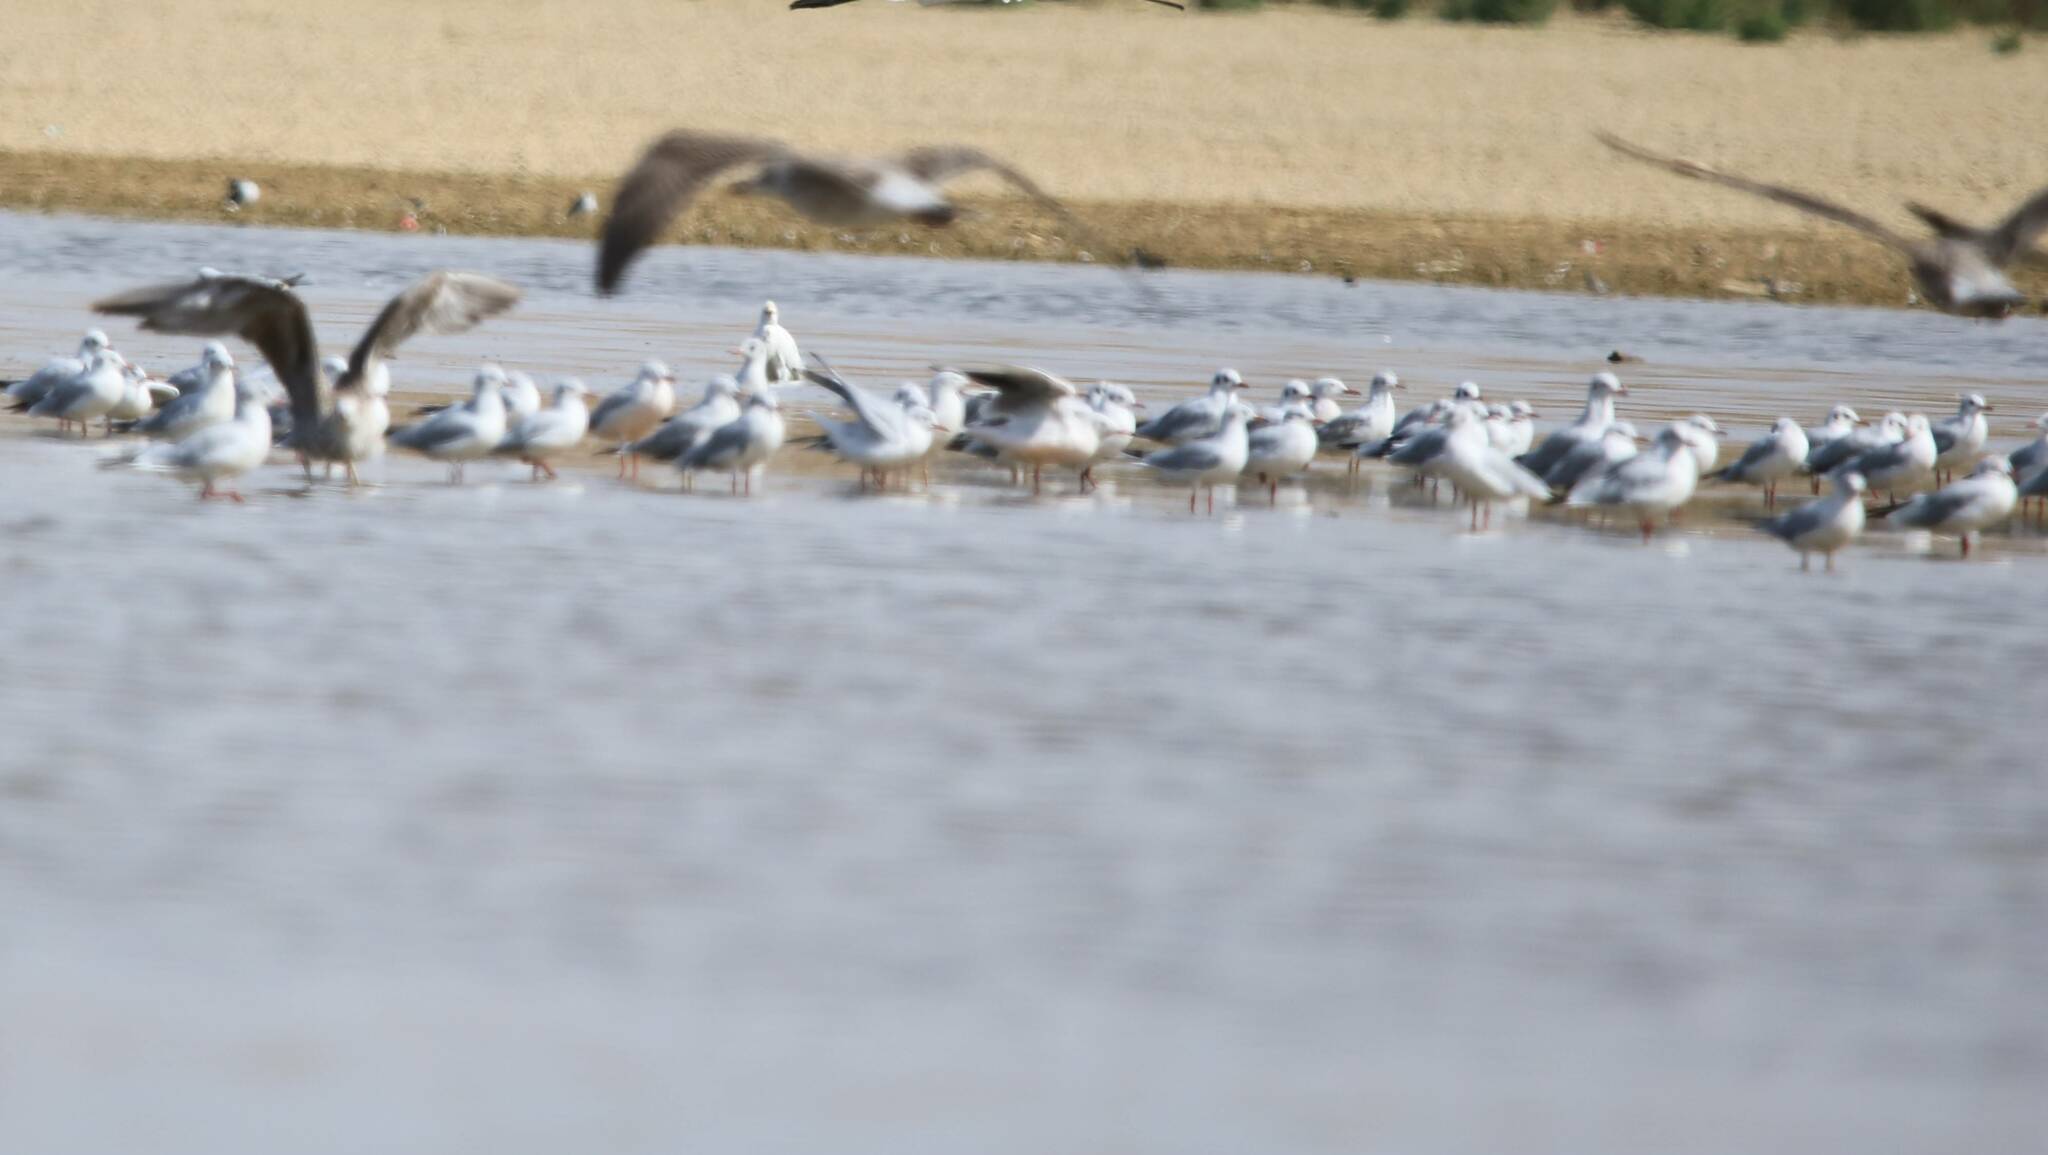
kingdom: Animalia
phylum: Chordata
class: Aves
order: Charadriiformes
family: Laridae
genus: Chroicocephalus
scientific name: Chroicocephalus ridibundus
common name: Black-headed gull
